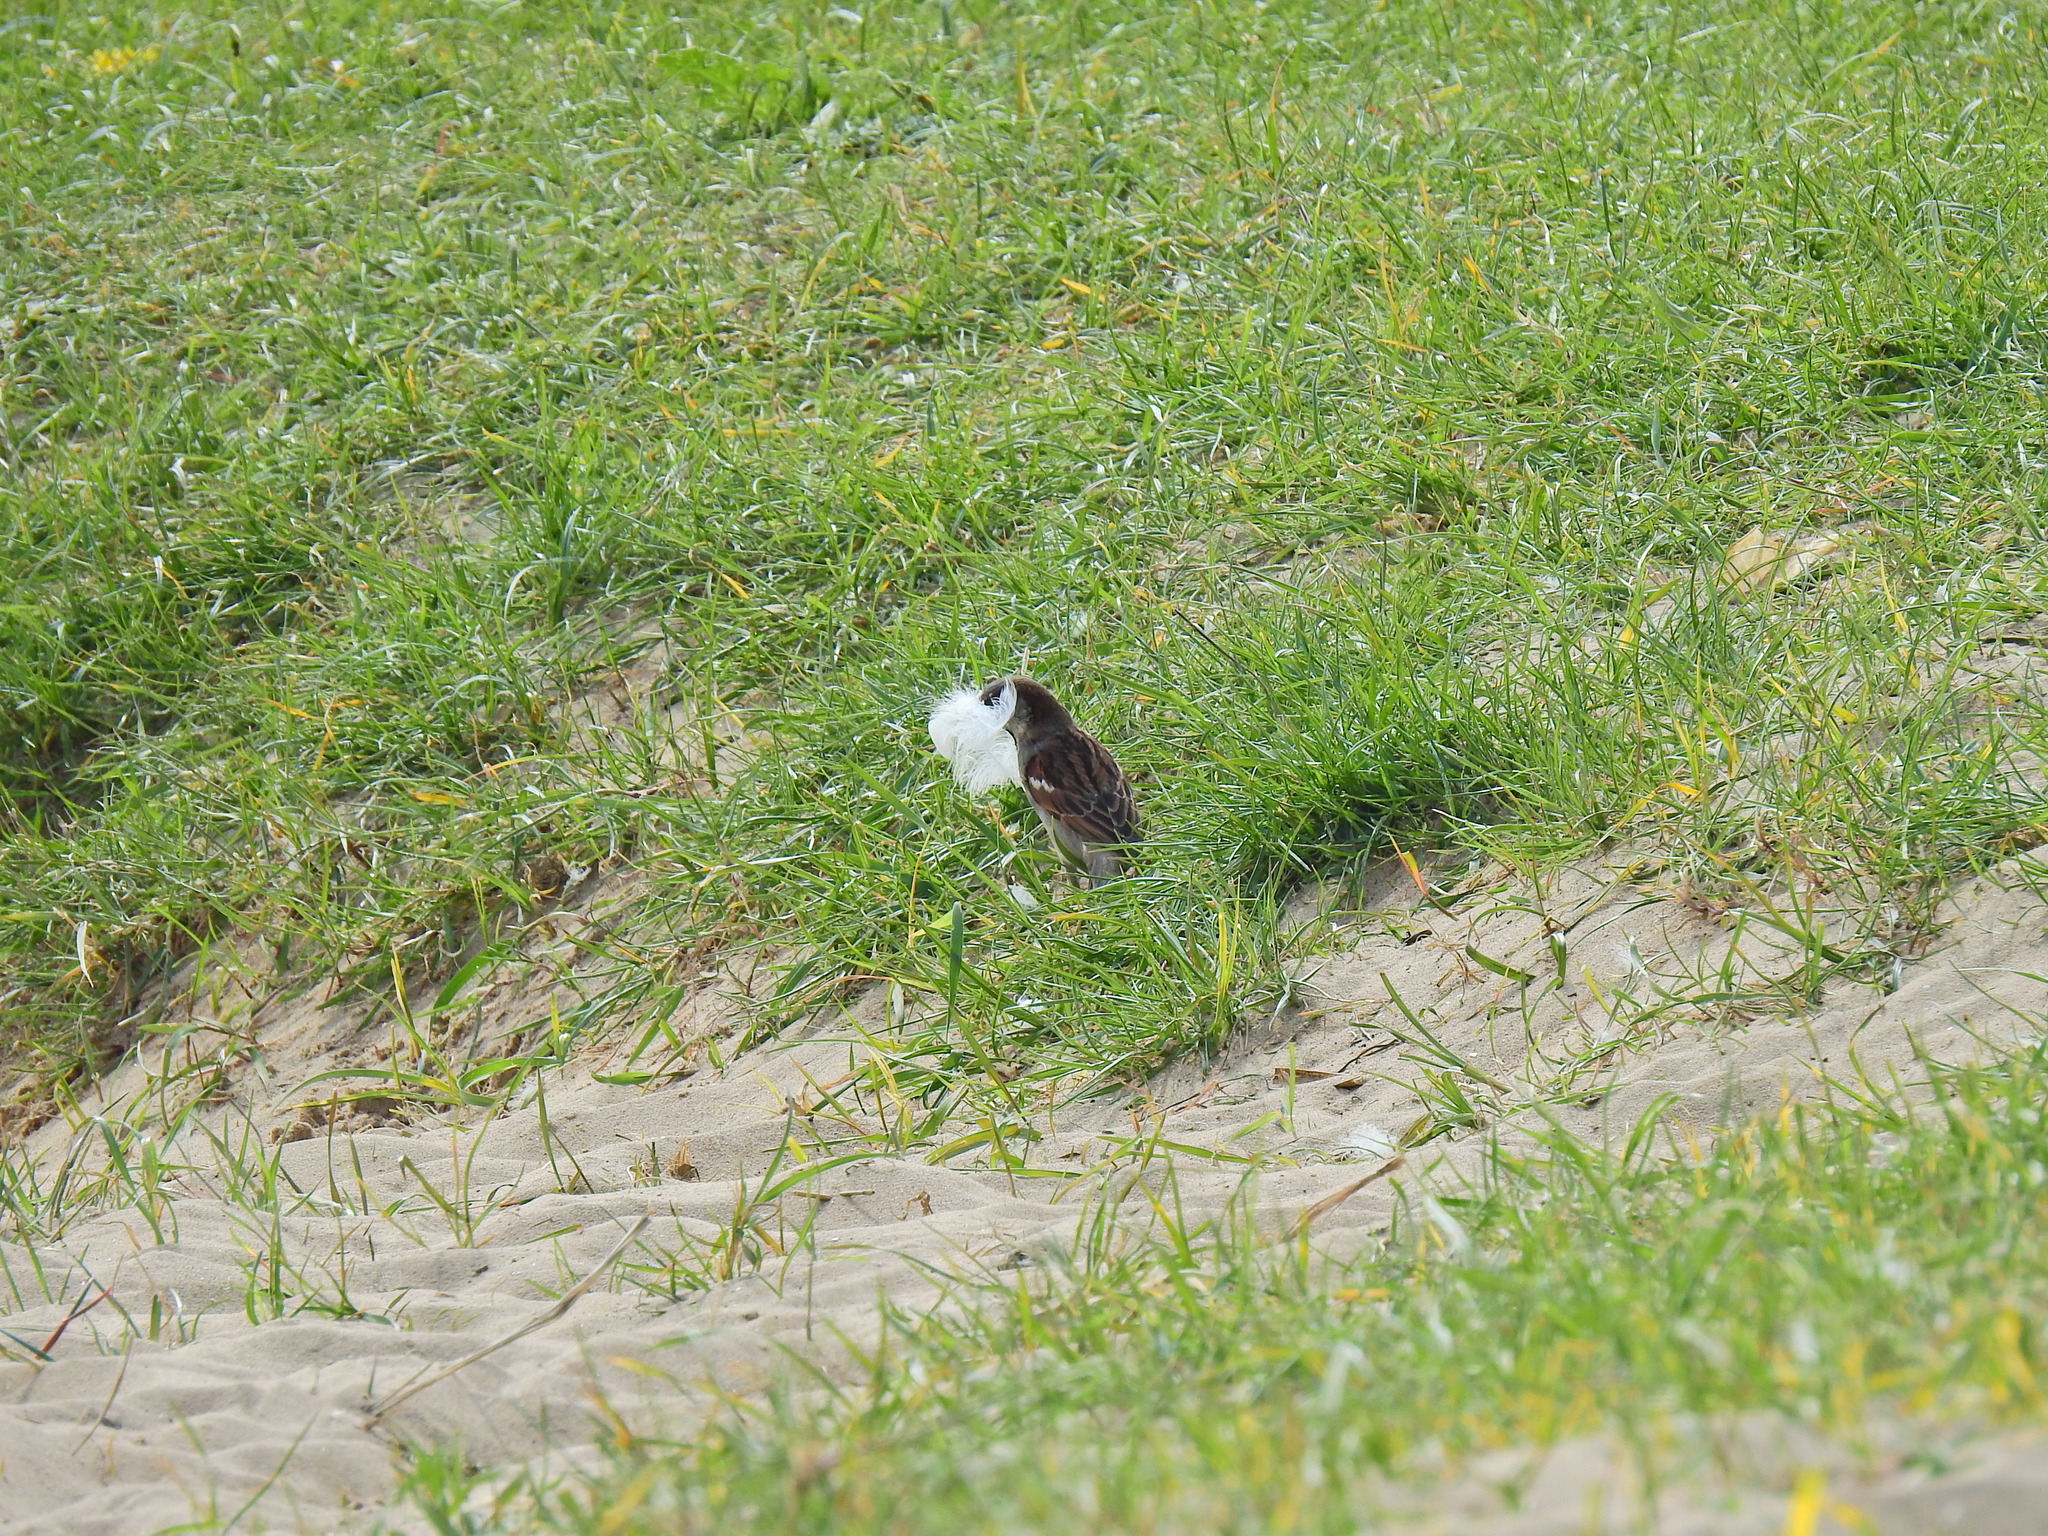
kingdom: Animalia
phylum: Chordata
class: Aves
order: Passeriformes
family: Passeridae
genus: Passer
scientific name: Passer domesticus
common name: House sparrow
